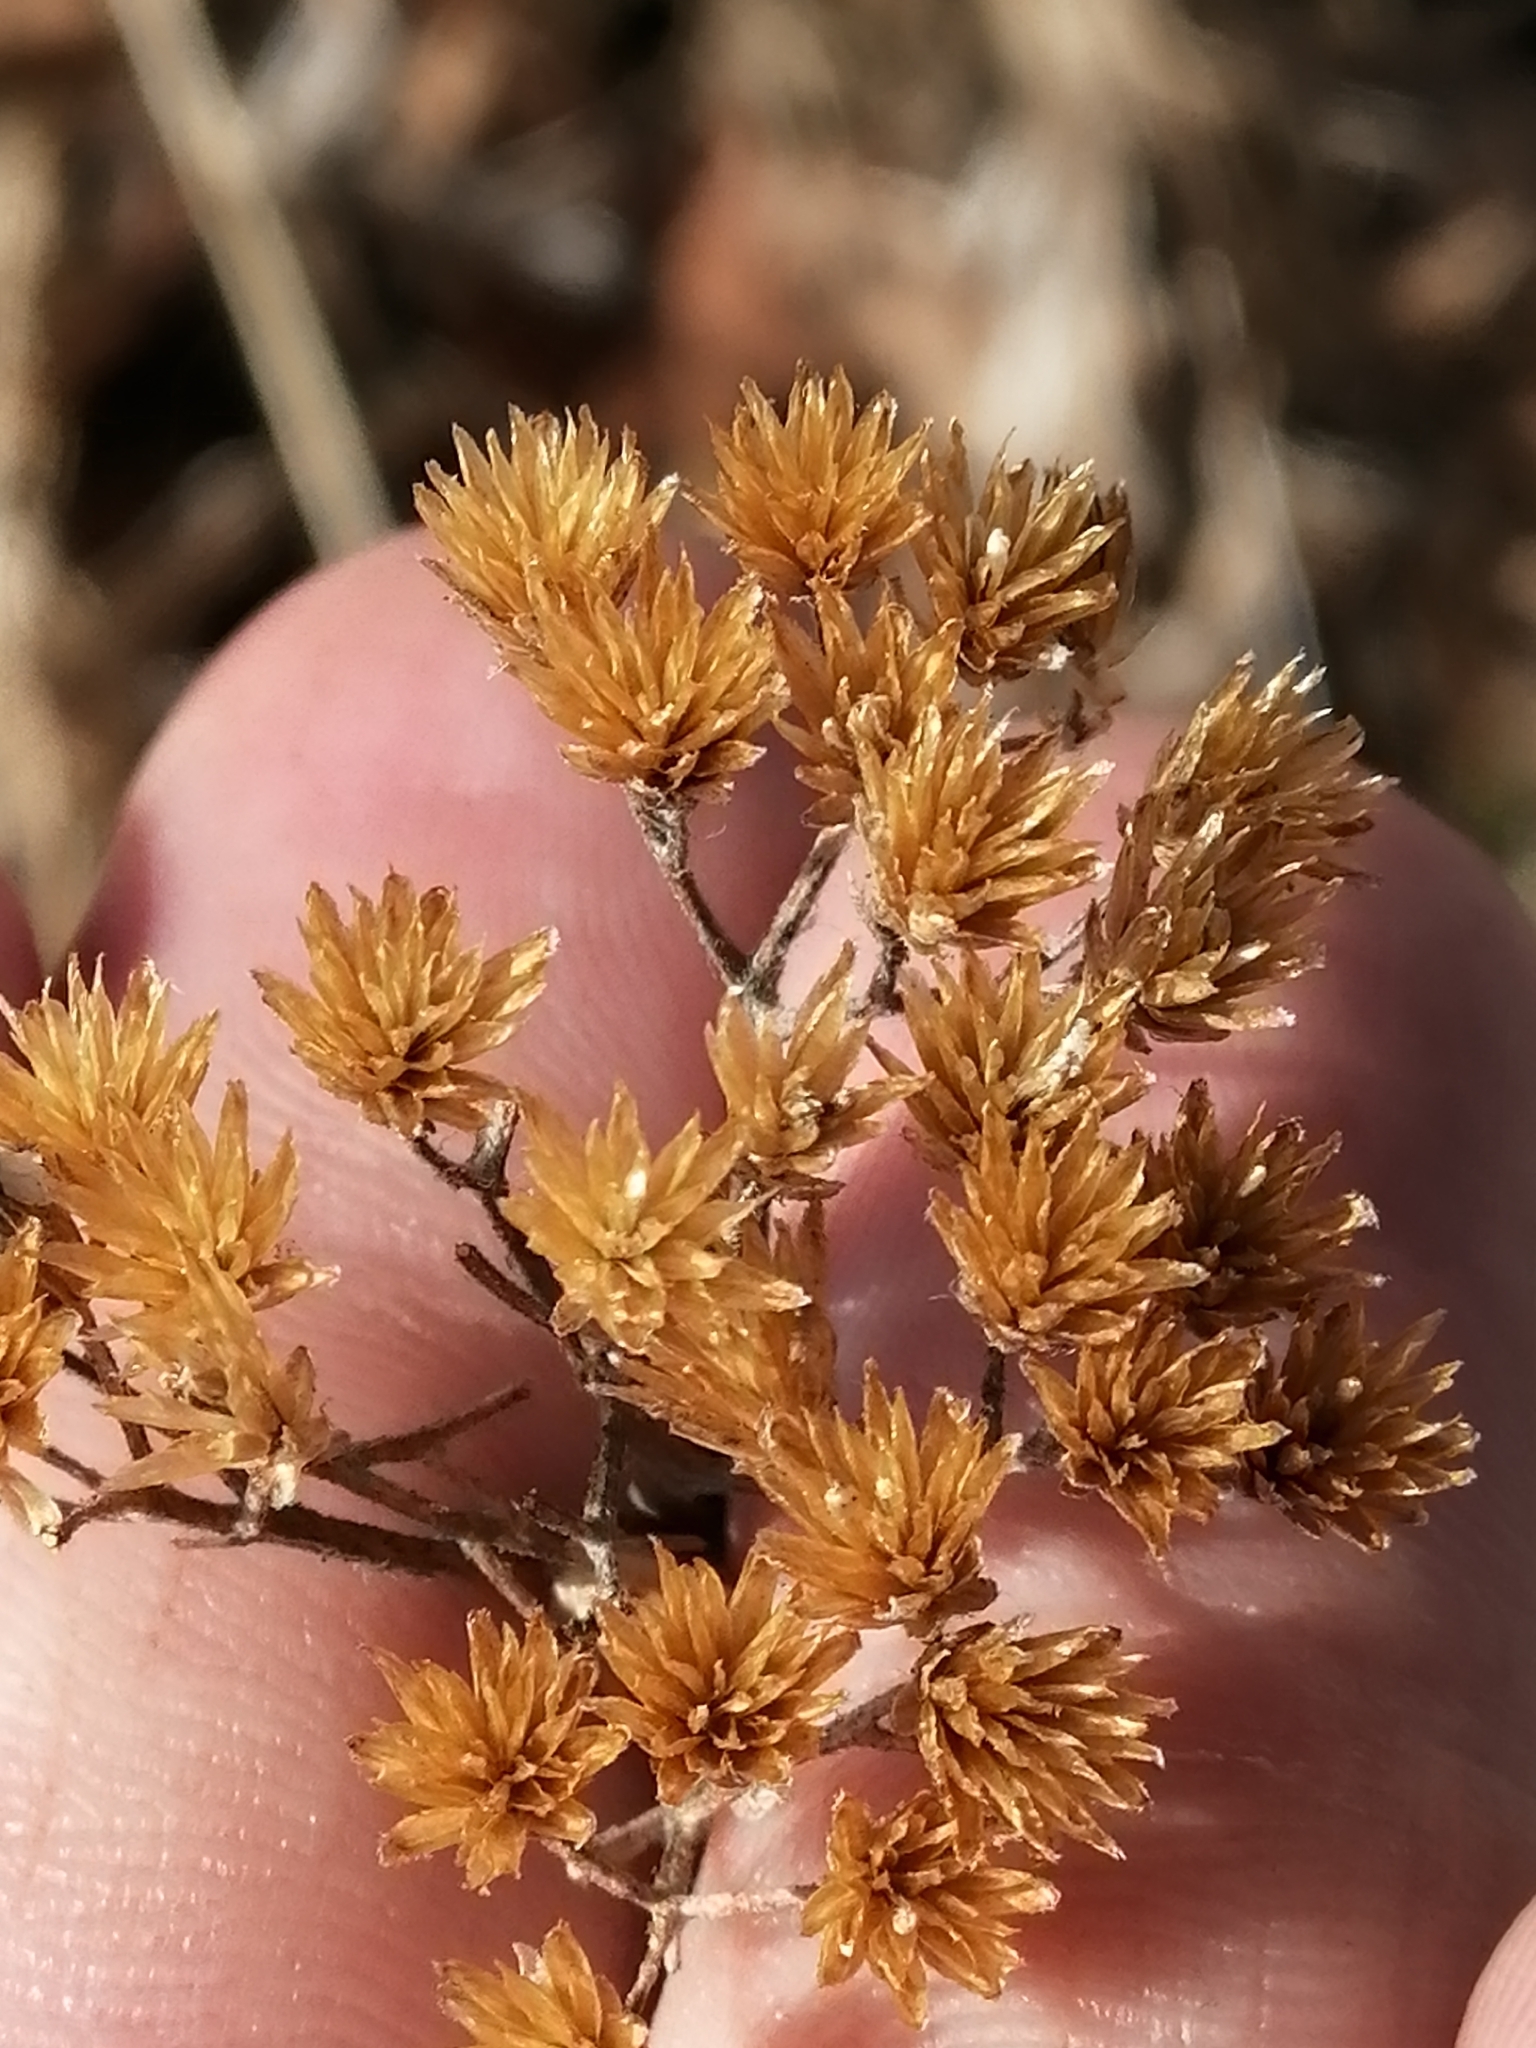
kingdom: Plantae
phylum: Tracheophyta
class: Magnoliopsida
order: Asterales
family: Asteraceae
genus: Achillea
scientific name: Achillea millefolium
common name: Yarrow
